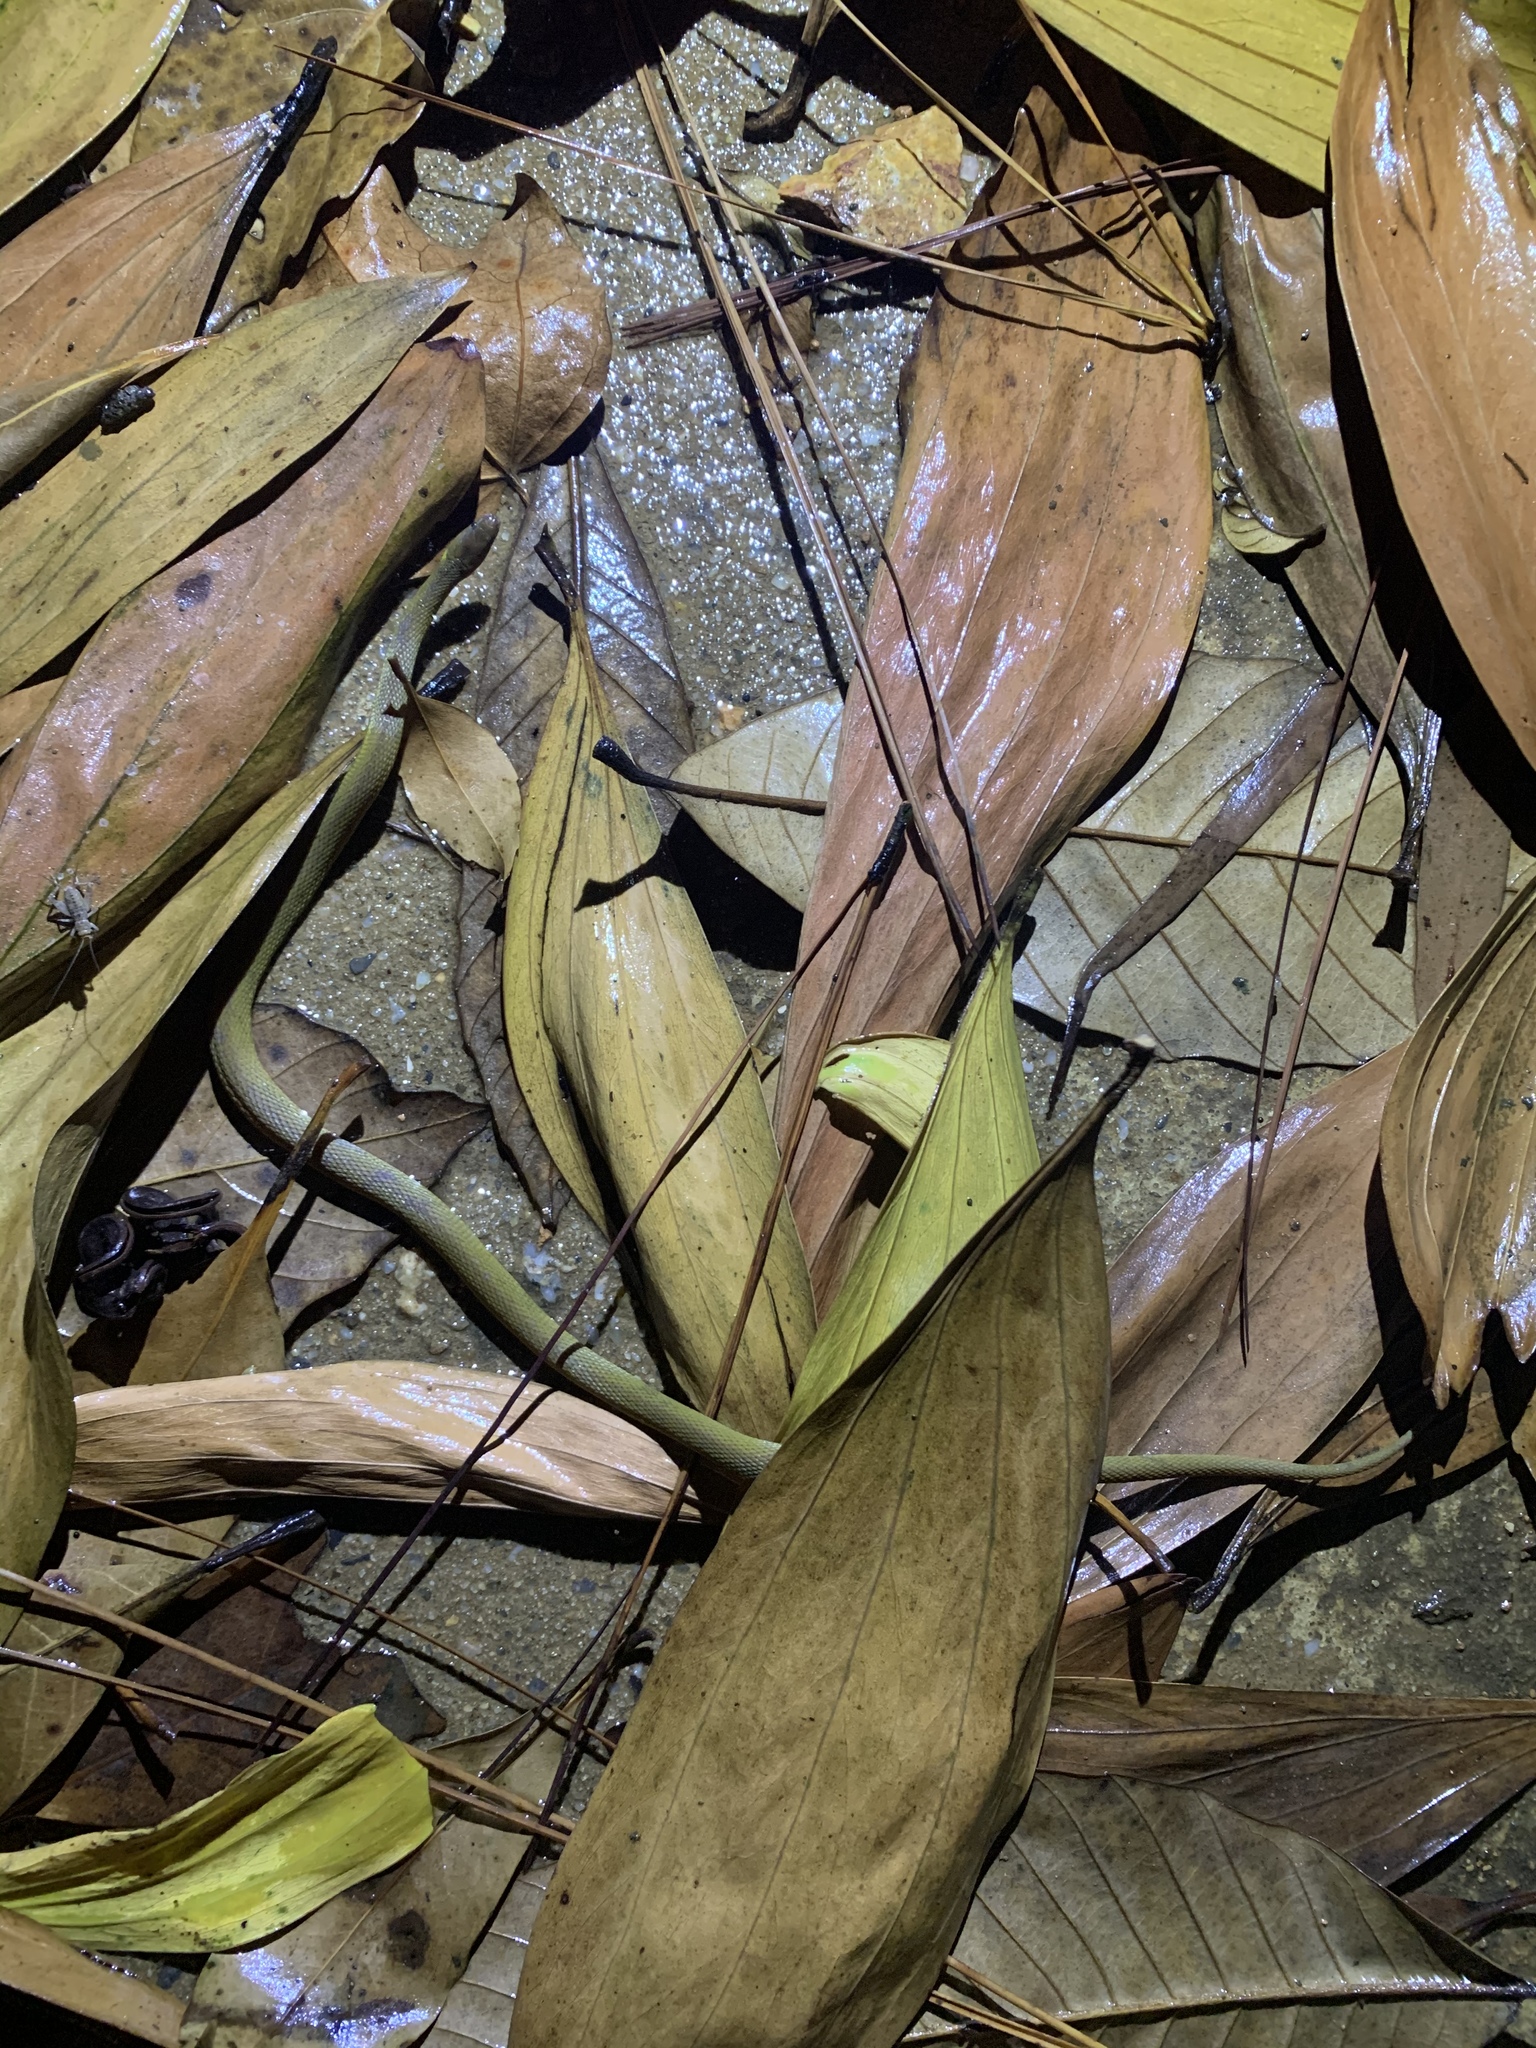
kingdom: Animalia
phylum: Chordata
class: Squamata
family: Xenodermidae
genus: Achalinus
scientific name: Achalinus rufescens
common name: Rufous burrowing snake
